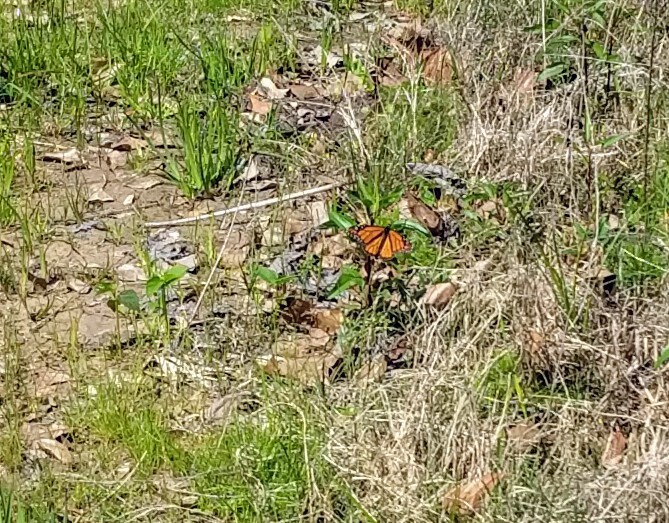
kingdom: Animalia
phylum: Arthropoda
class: Insecta
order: Lepidoptera
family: Nymphalidae
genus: Danaus
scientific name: Danaus plexippus
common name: Monarch
